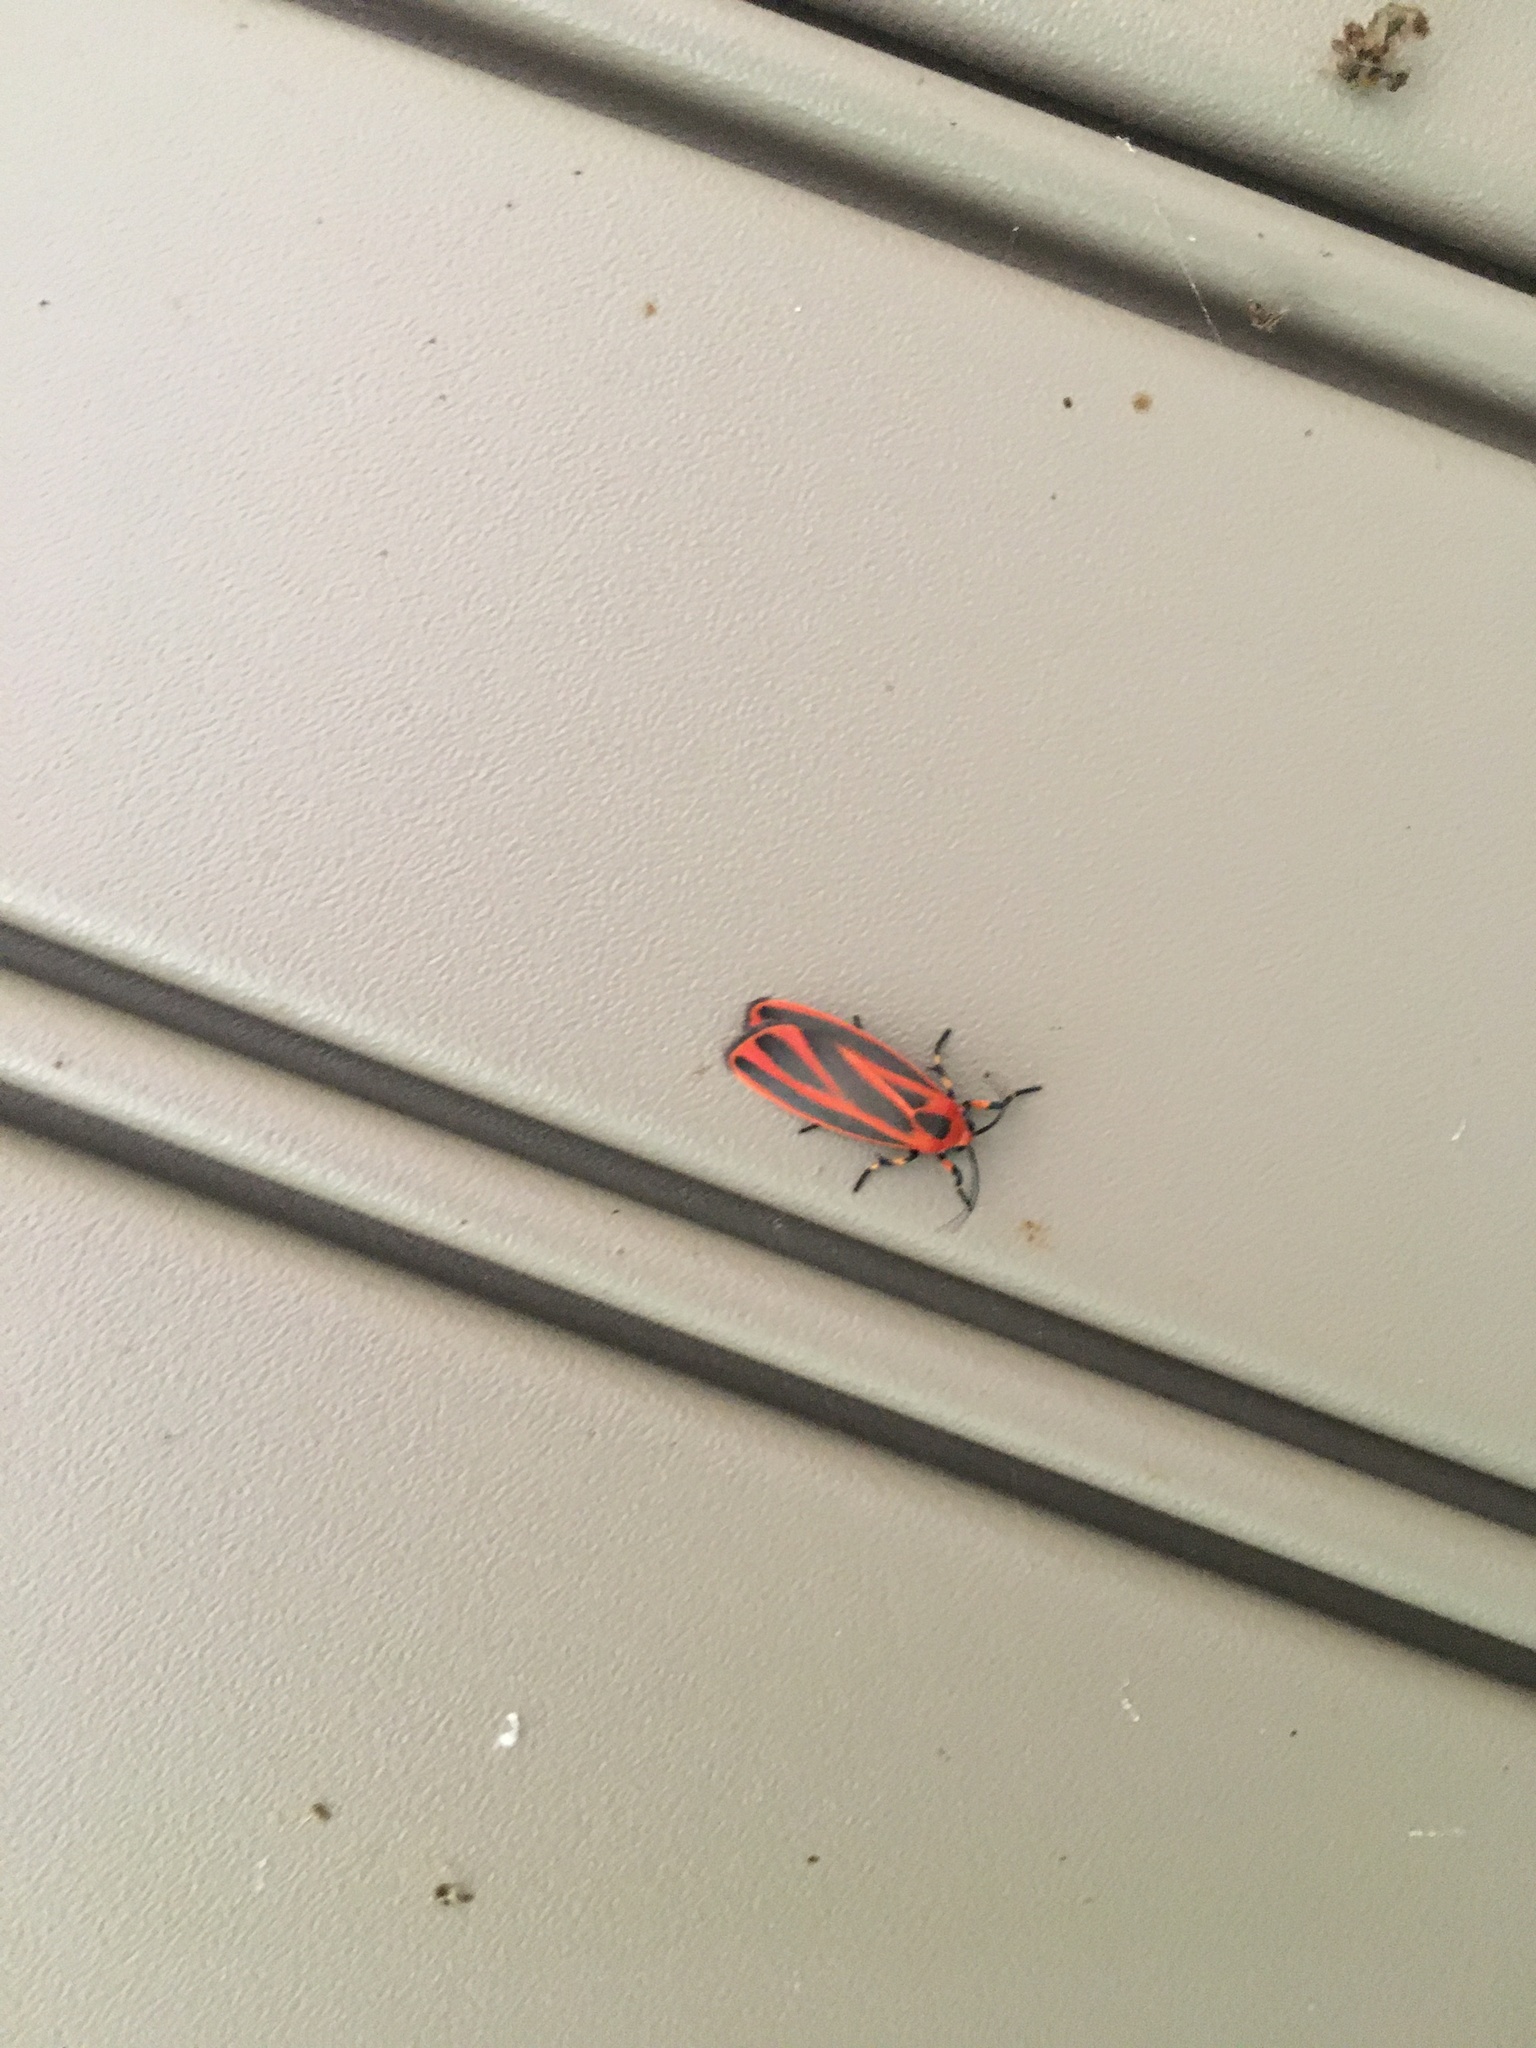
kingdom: Animalia
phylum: Arthropoda
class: Insecta
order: Lepidoptera
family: Erebidae
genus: Hypoprepia
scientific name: Hypoprepia miniata
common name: Scarlet-winged lichen moth
